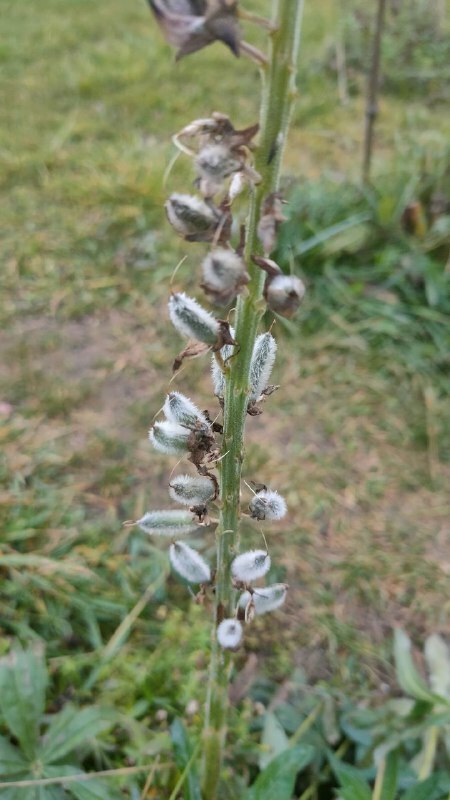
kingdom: Plantae
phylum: Tracheophyta
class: Magnoliopsida
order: Fabales
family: Fabaceae
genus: Lupinus
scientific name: Lupinus polyphyllus
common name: Garden lupin
